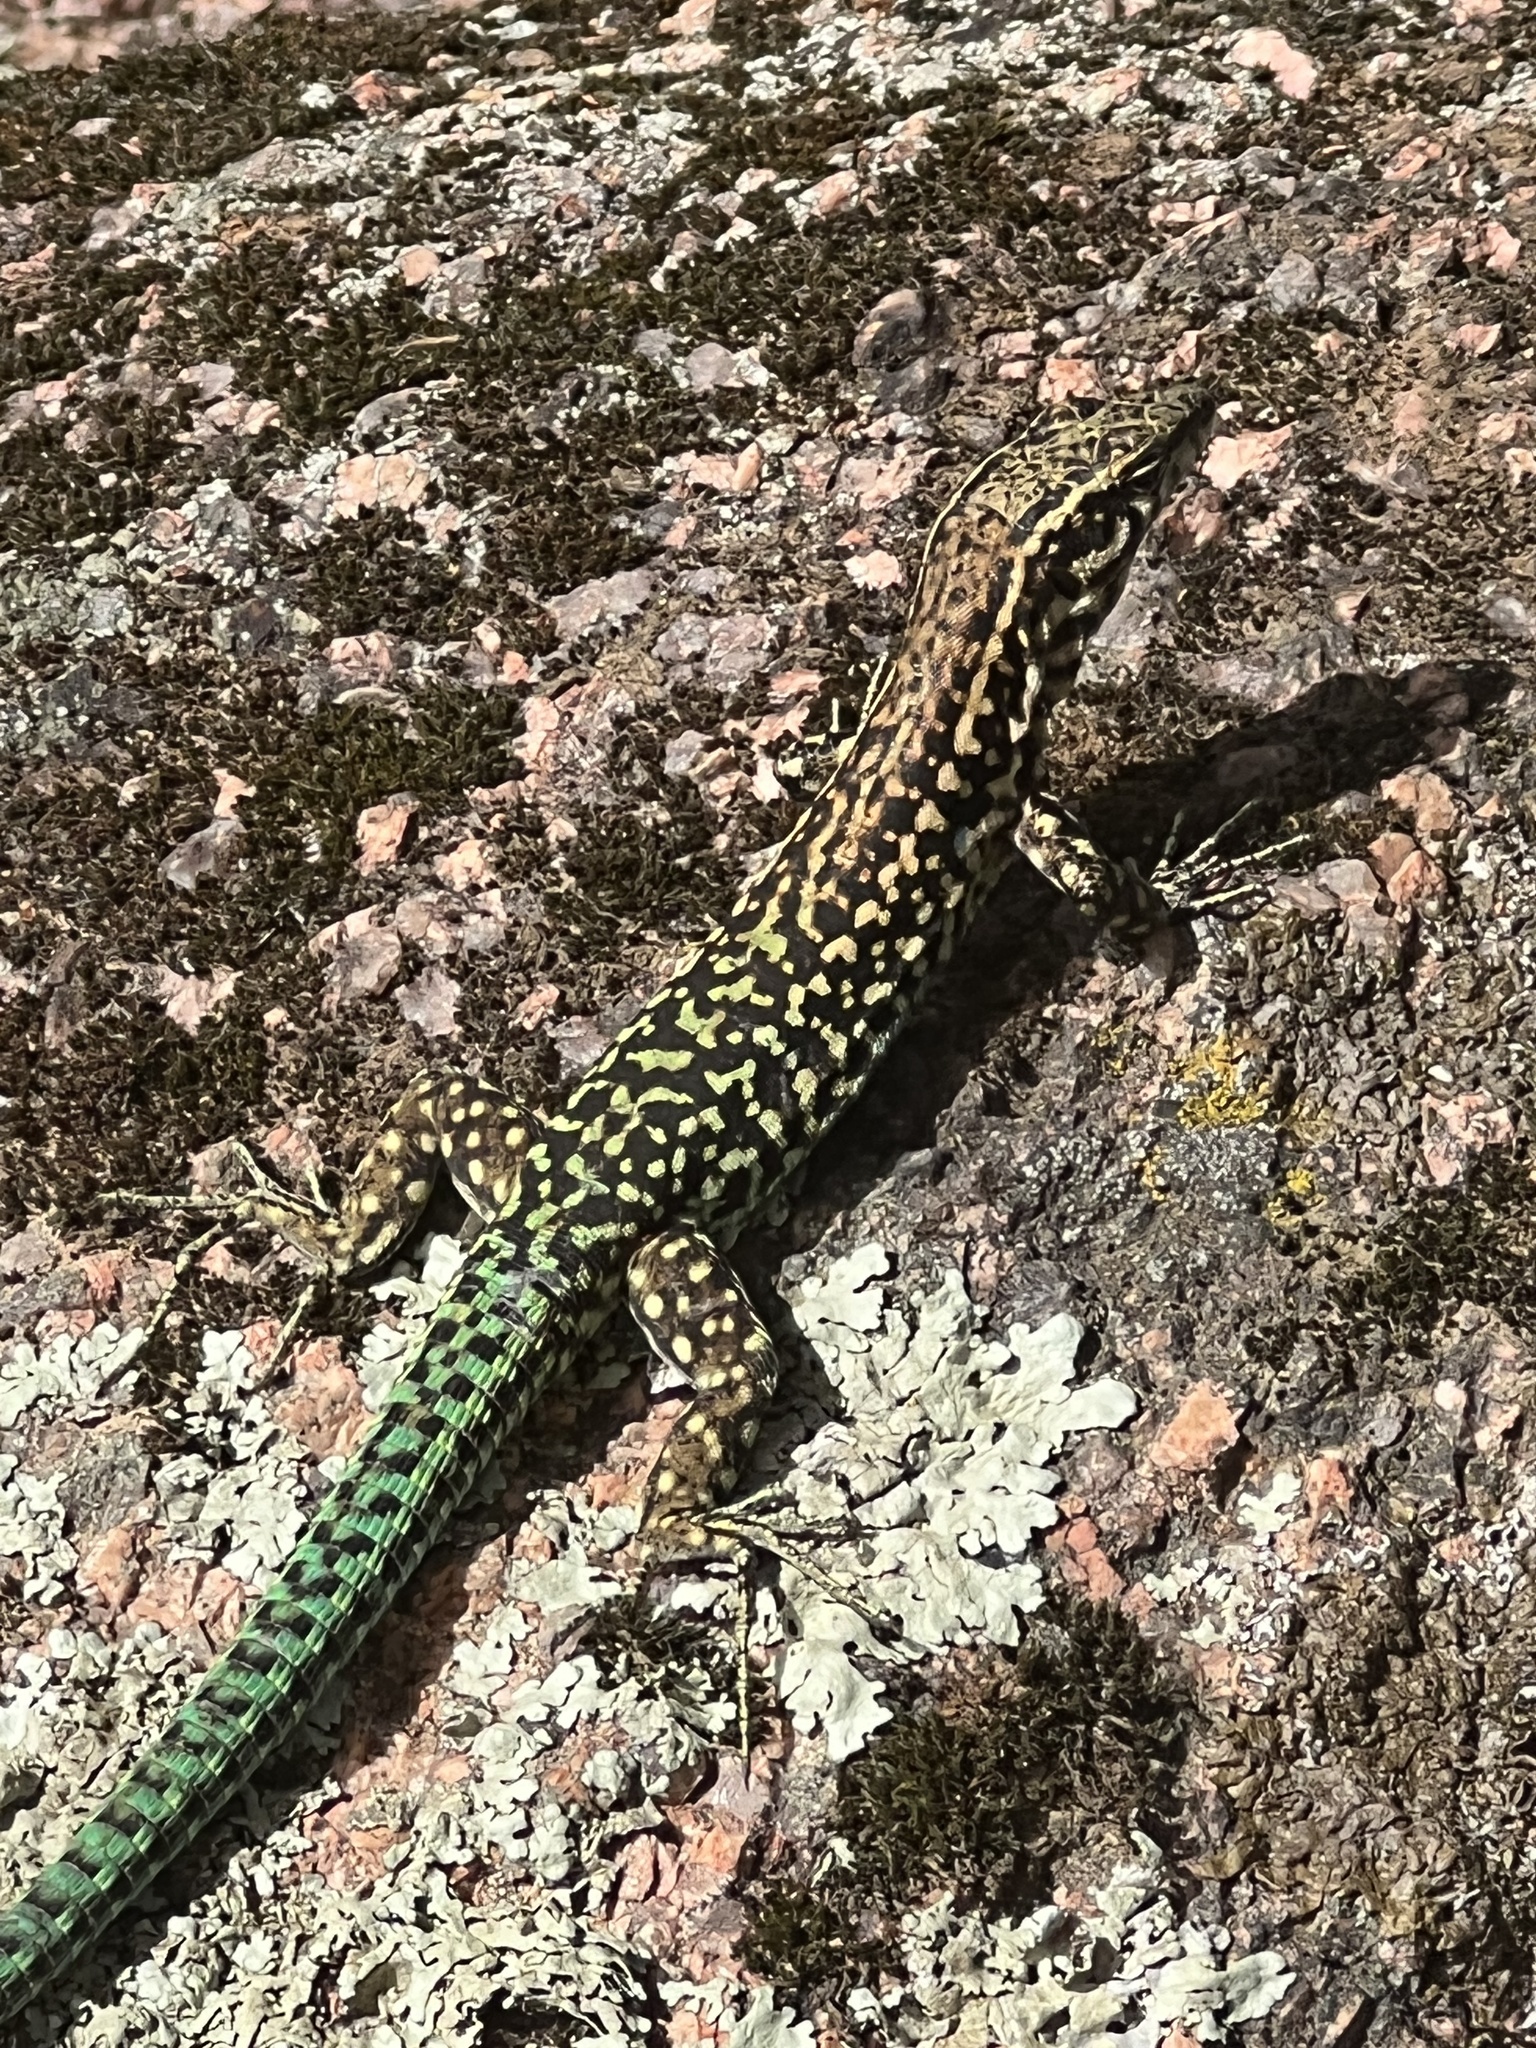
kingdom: Animalia
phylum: Chordata
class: Squamata
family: Lacertidae
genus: Podarcis
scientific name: Podarcis tiliguerta
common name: Tyrrhenian wall lizard
